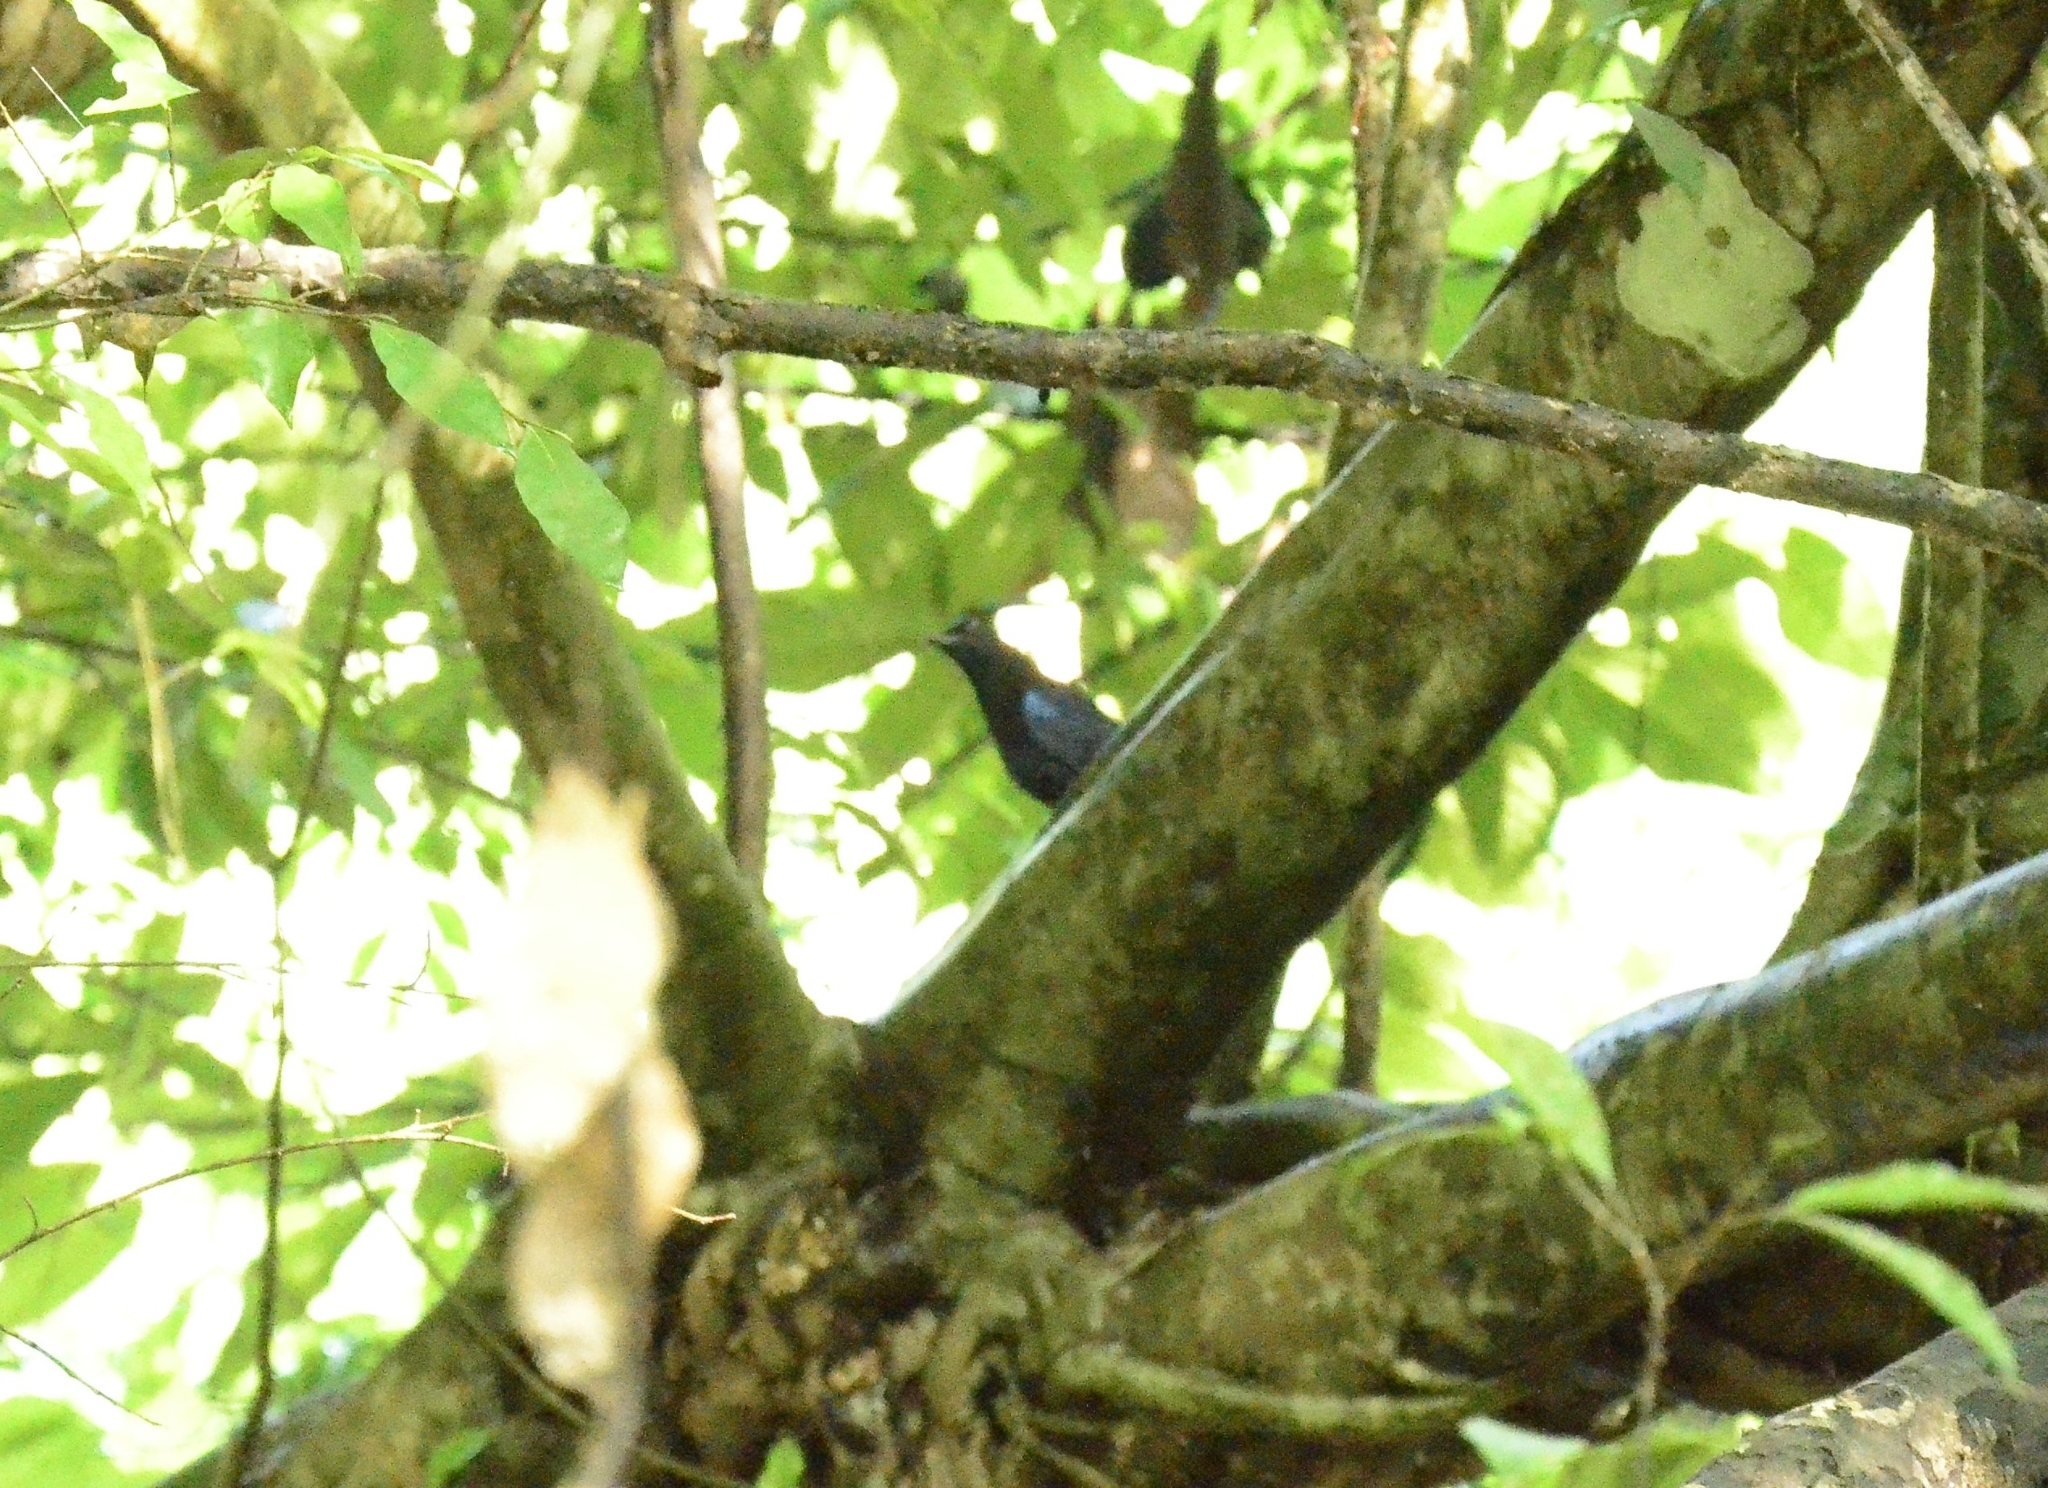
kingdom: Animalia
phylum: Chordata
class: Aves
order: Passeriformes
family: Muscicapidae
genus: Myophonus
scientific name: Myophonus horsfieldii
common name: Malabar whistling-thrush
